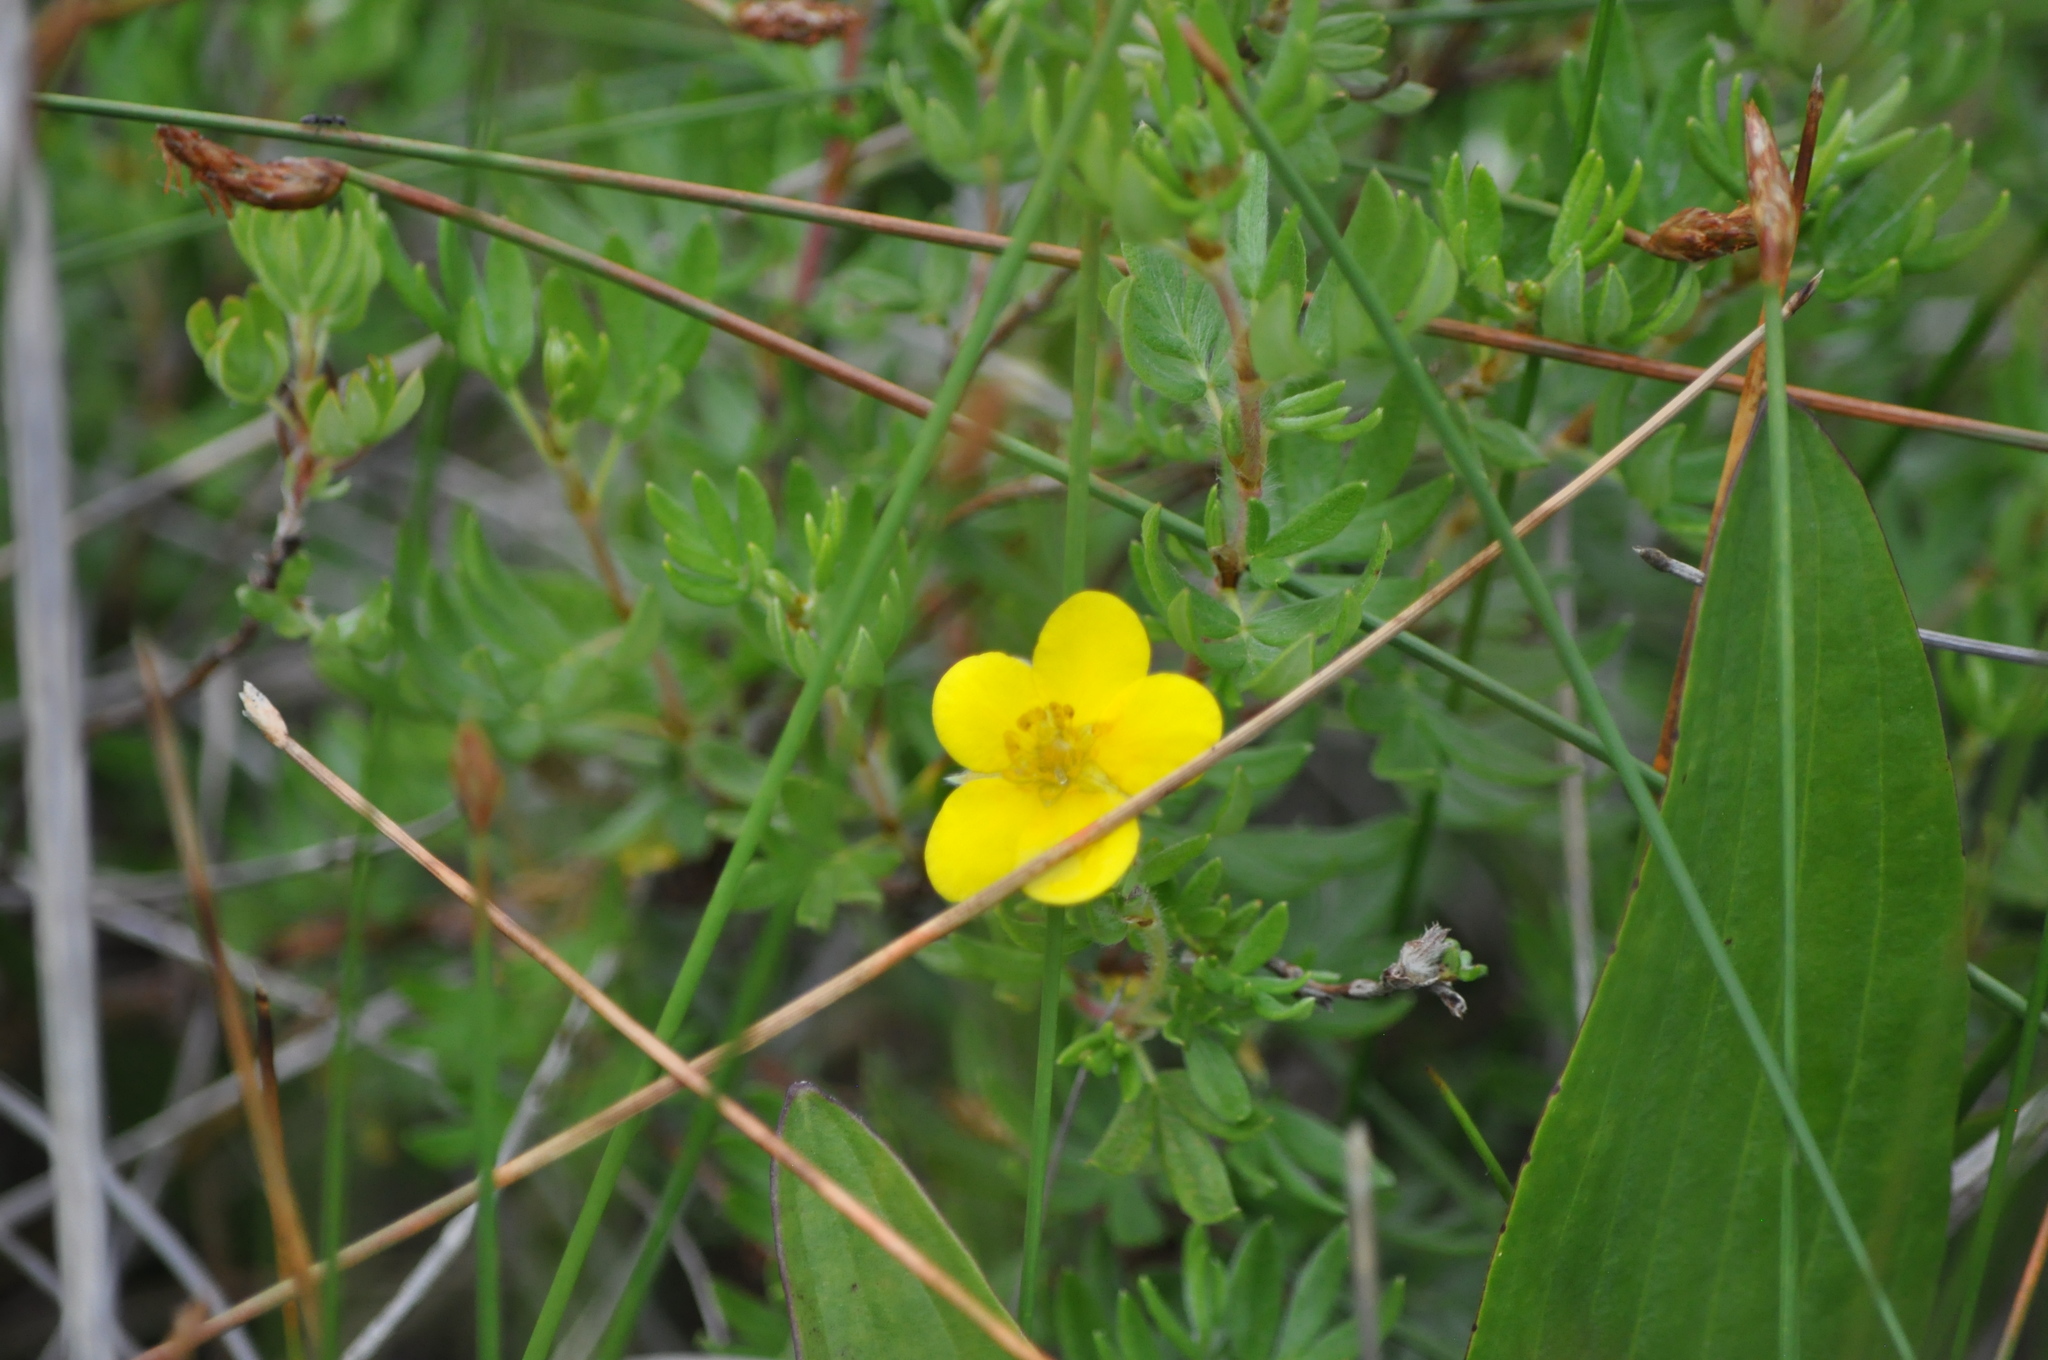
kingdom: Plantae
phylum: Tracheophyta
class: Magnoliopsida
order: Rosales
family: Rosaceae
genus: Dasiphora
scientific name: Dasiphora fruticosa
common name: Shrubby cinquefoil
